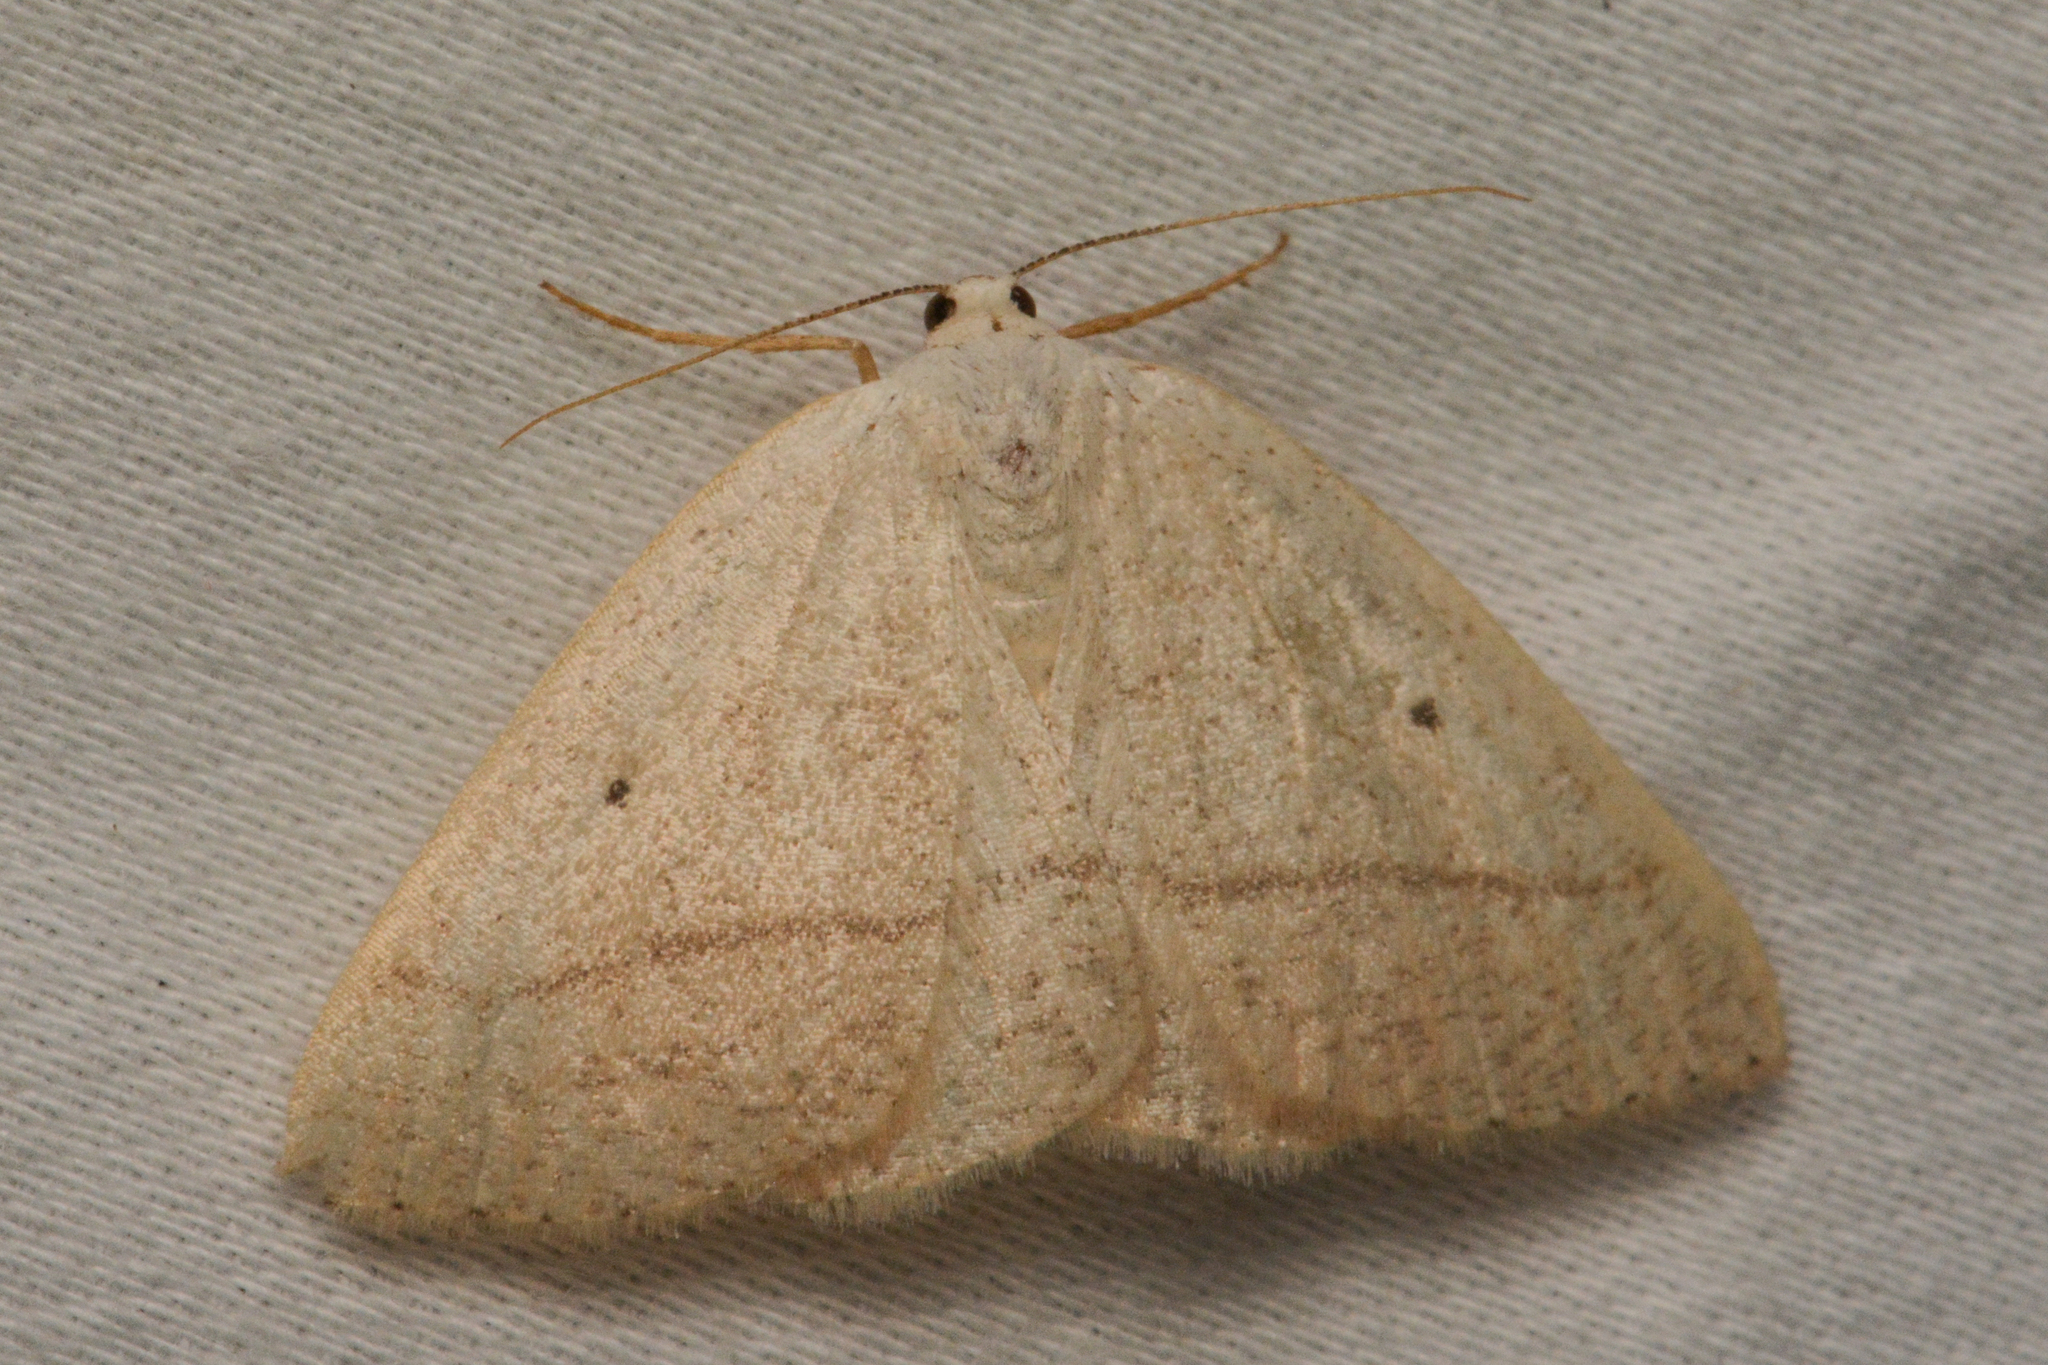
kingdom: Animalia
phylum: Arthropoda
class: Insecta
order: Lepidoptera
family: Geometridae
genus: Eudrepanulatrix
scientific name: Eudrepanulatrix rectifascia
